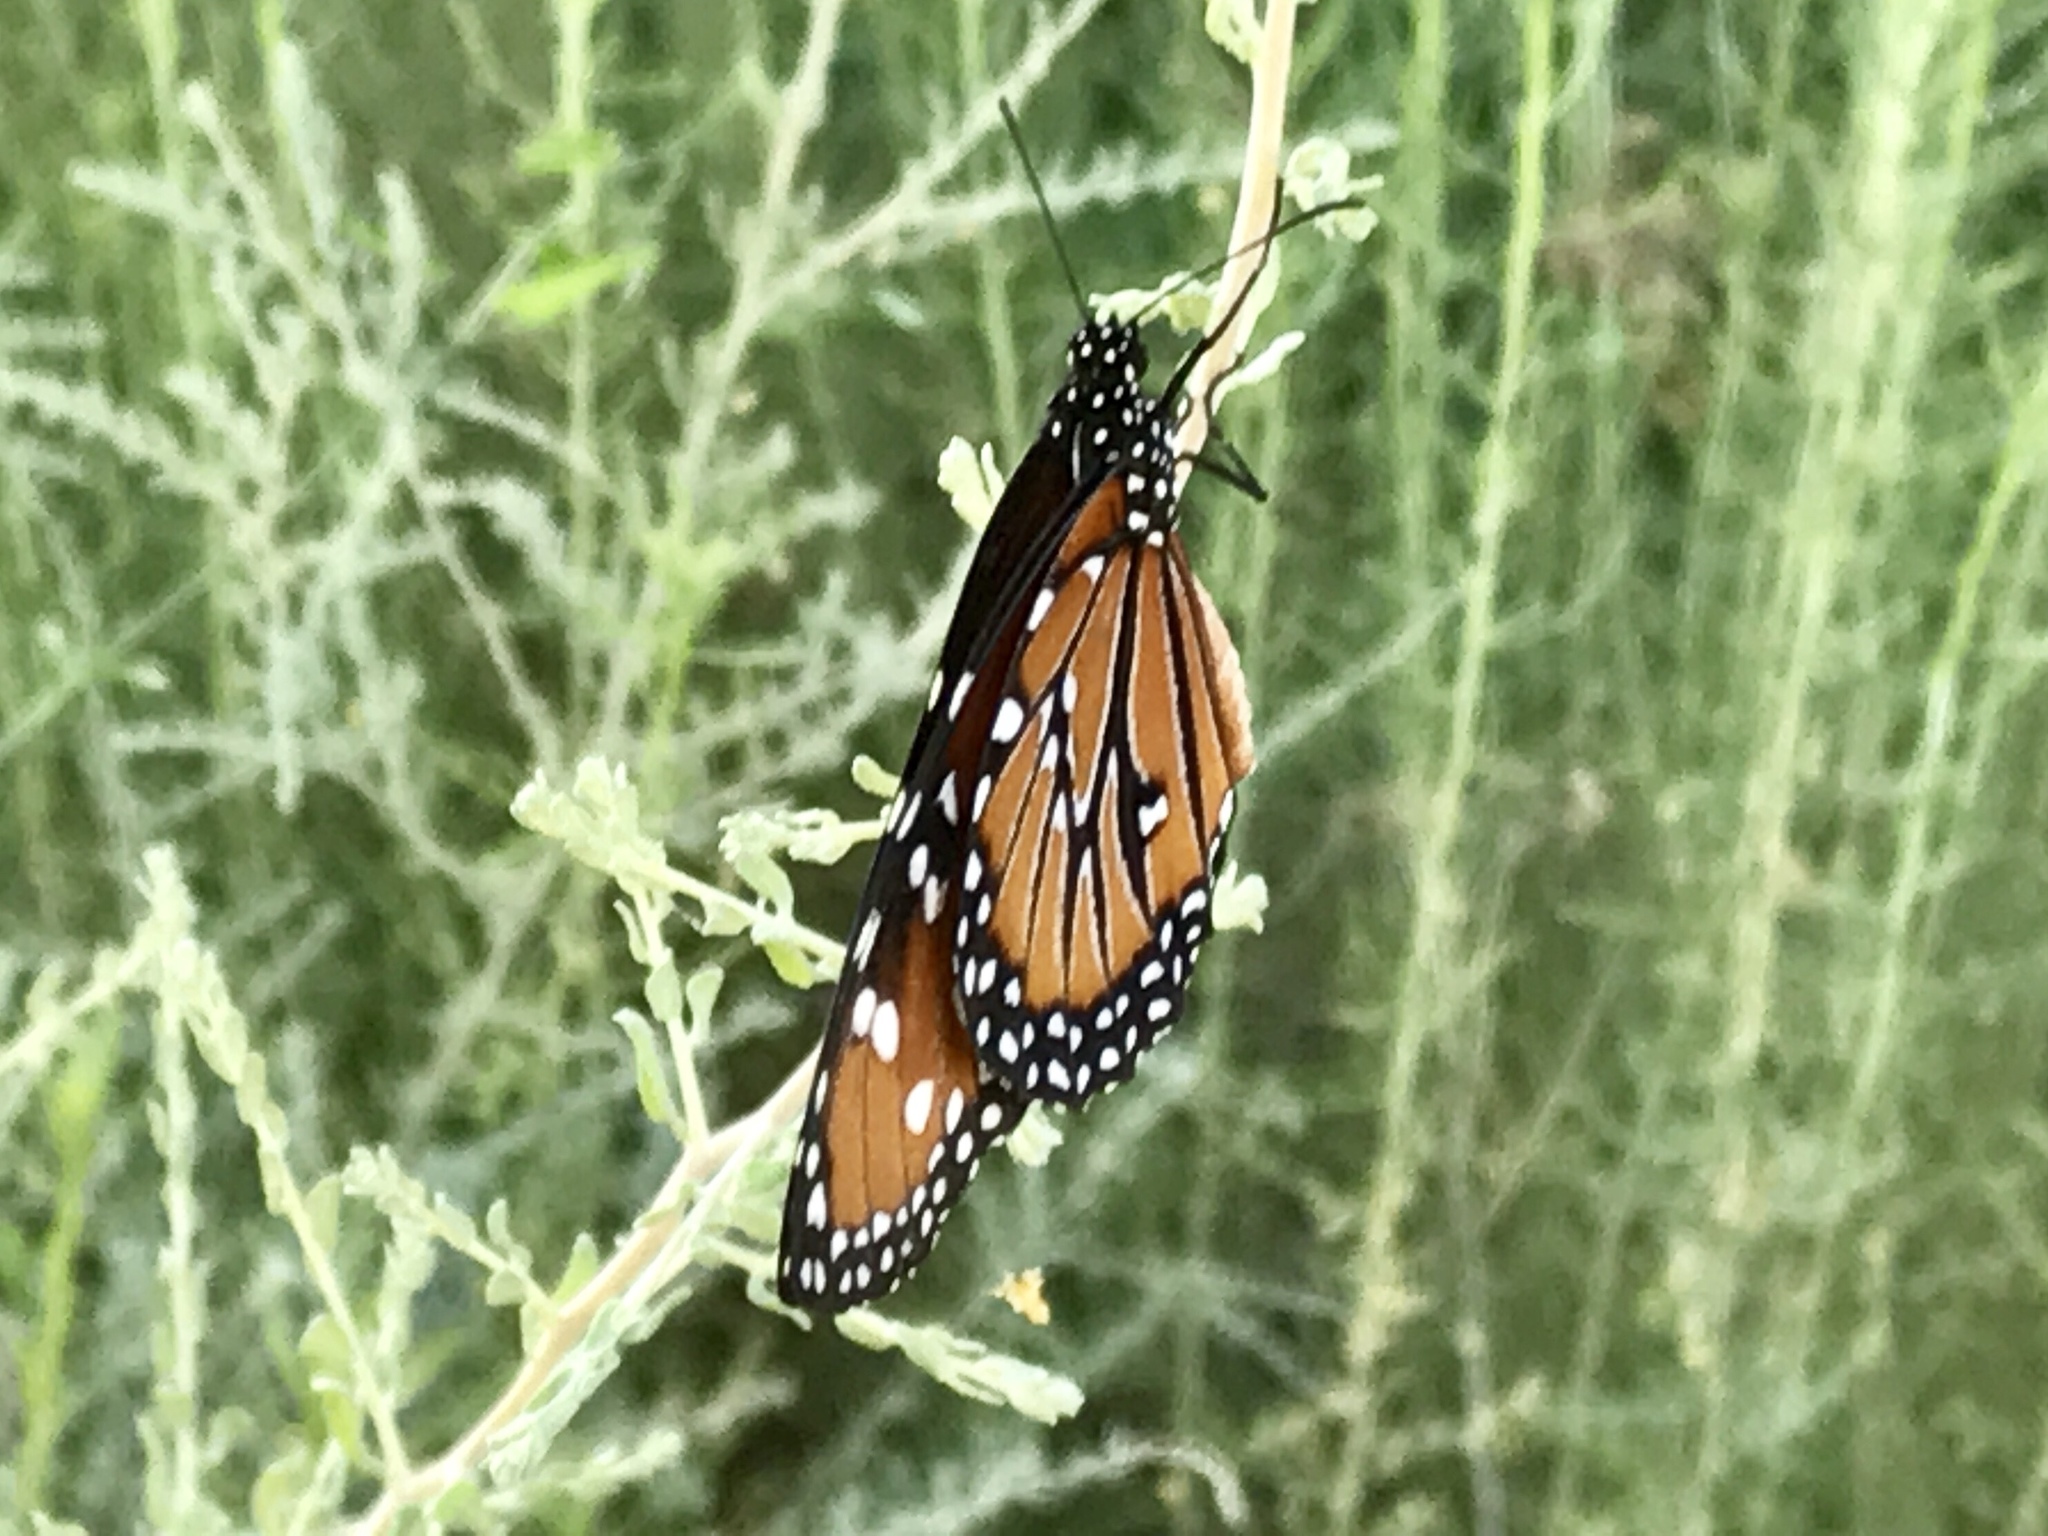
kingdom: Animalia
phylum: Arthropoda
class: Insecta
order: Lepidoptera
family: Nymphalidae
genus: Danaus
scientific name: Danaus gilippus
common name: Queen
